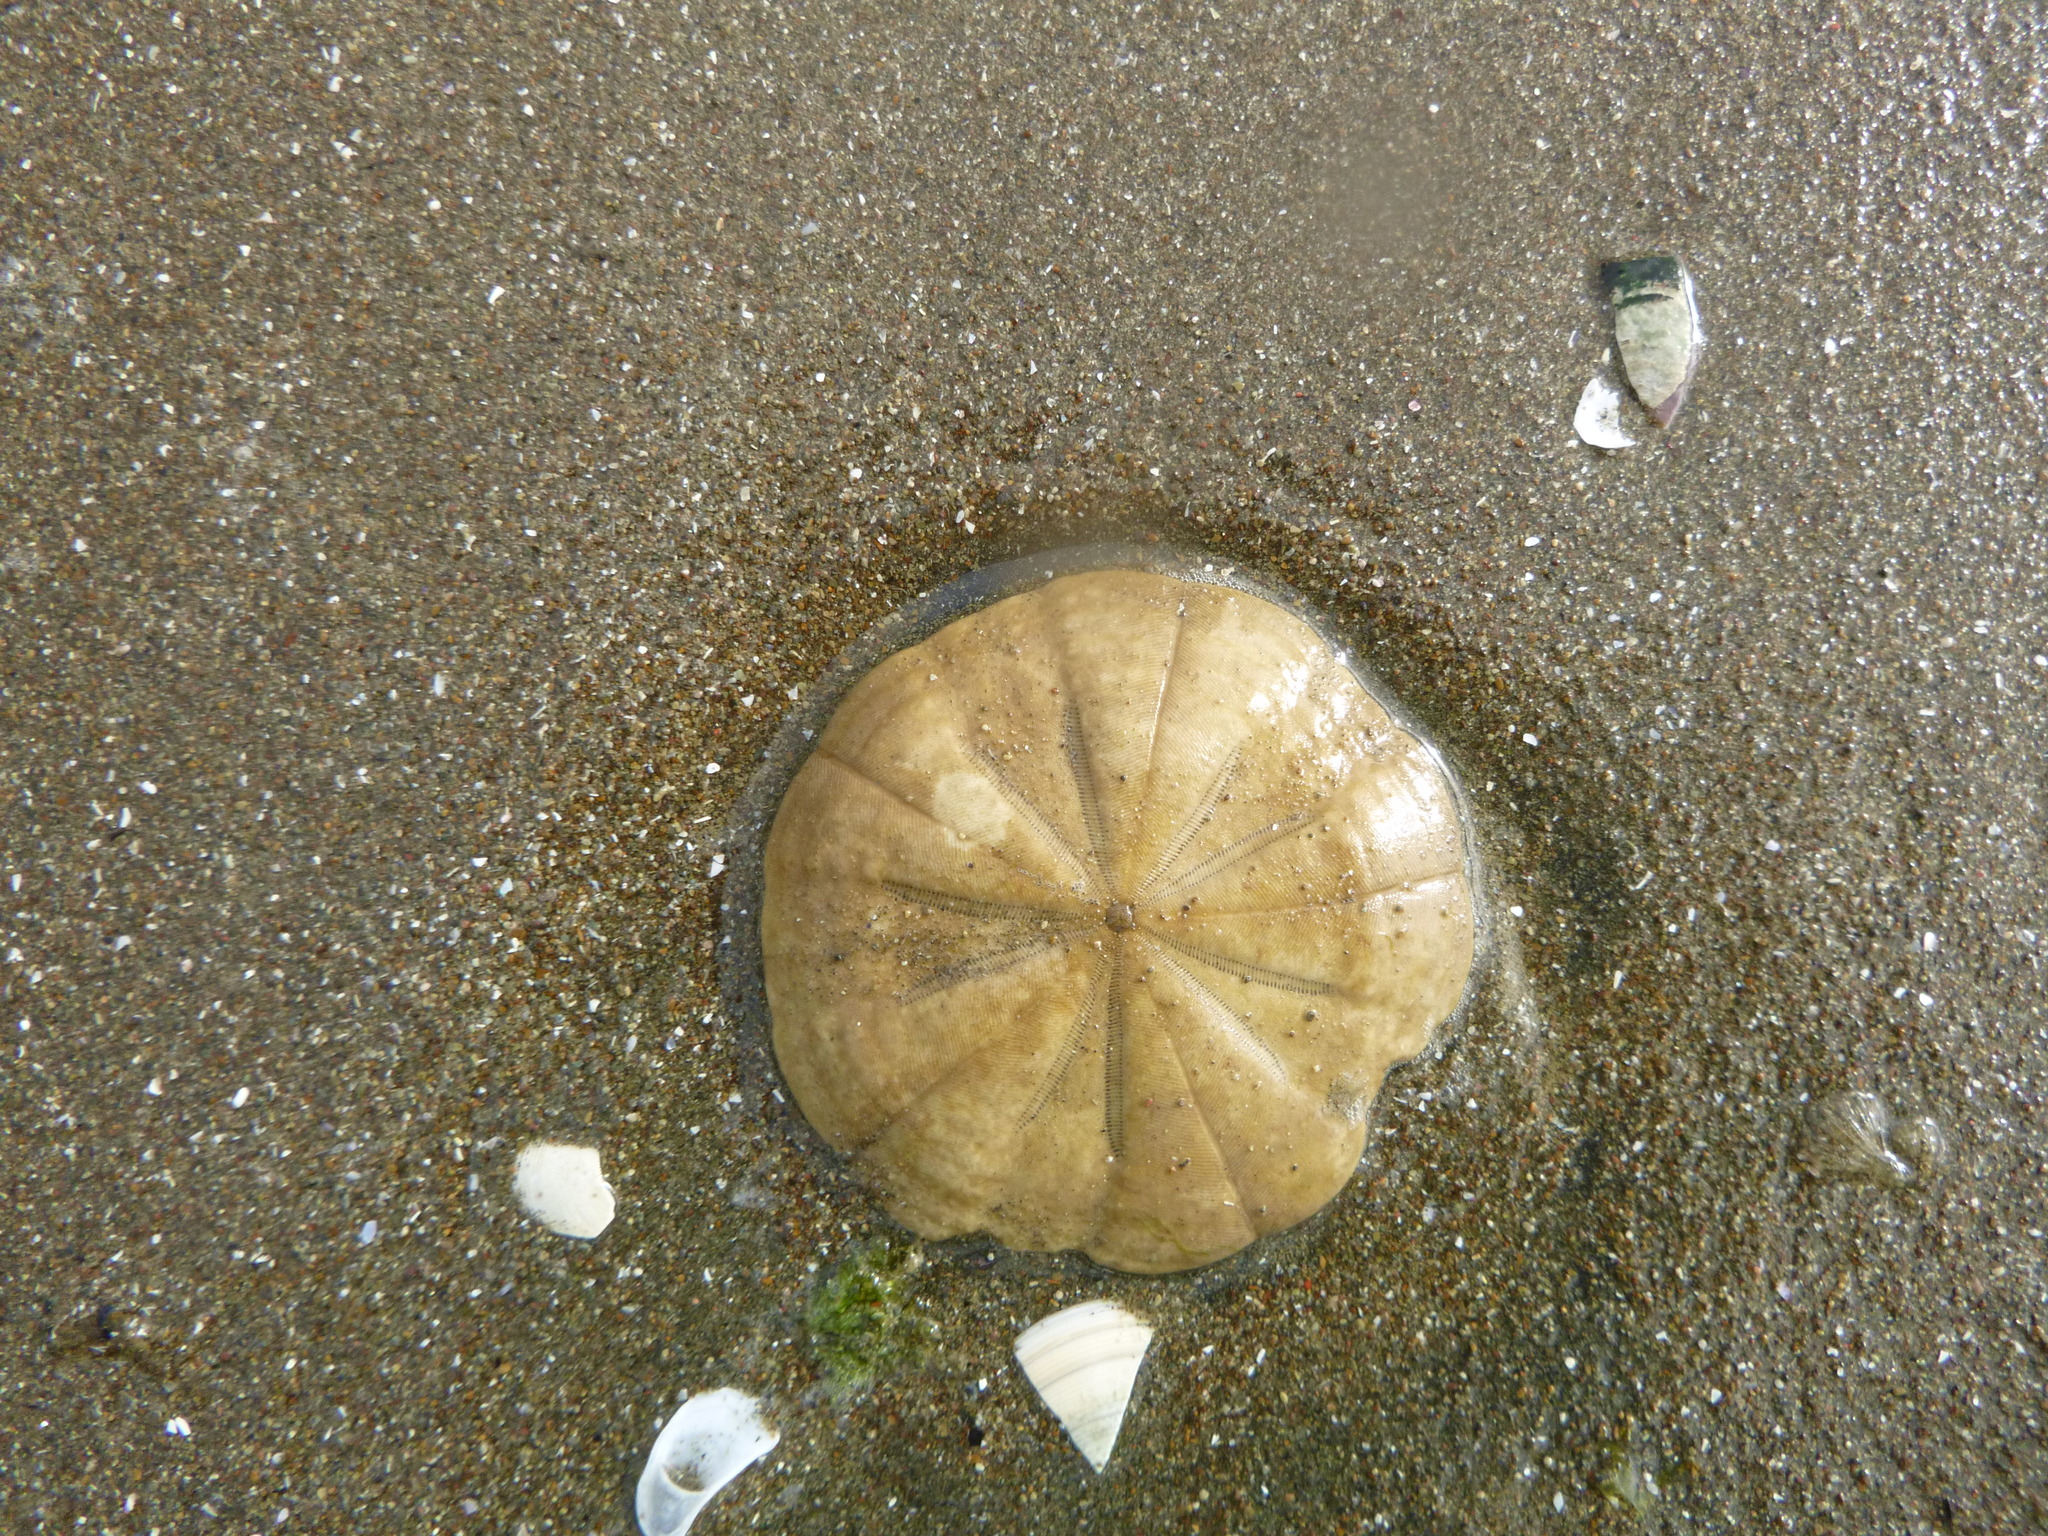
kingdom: Animalia
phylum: Echinodermata
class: Echinoidea
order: Clypeasteroida
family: Clypeasteridae
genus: Fellaster
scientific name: Fellaster zelandiae
